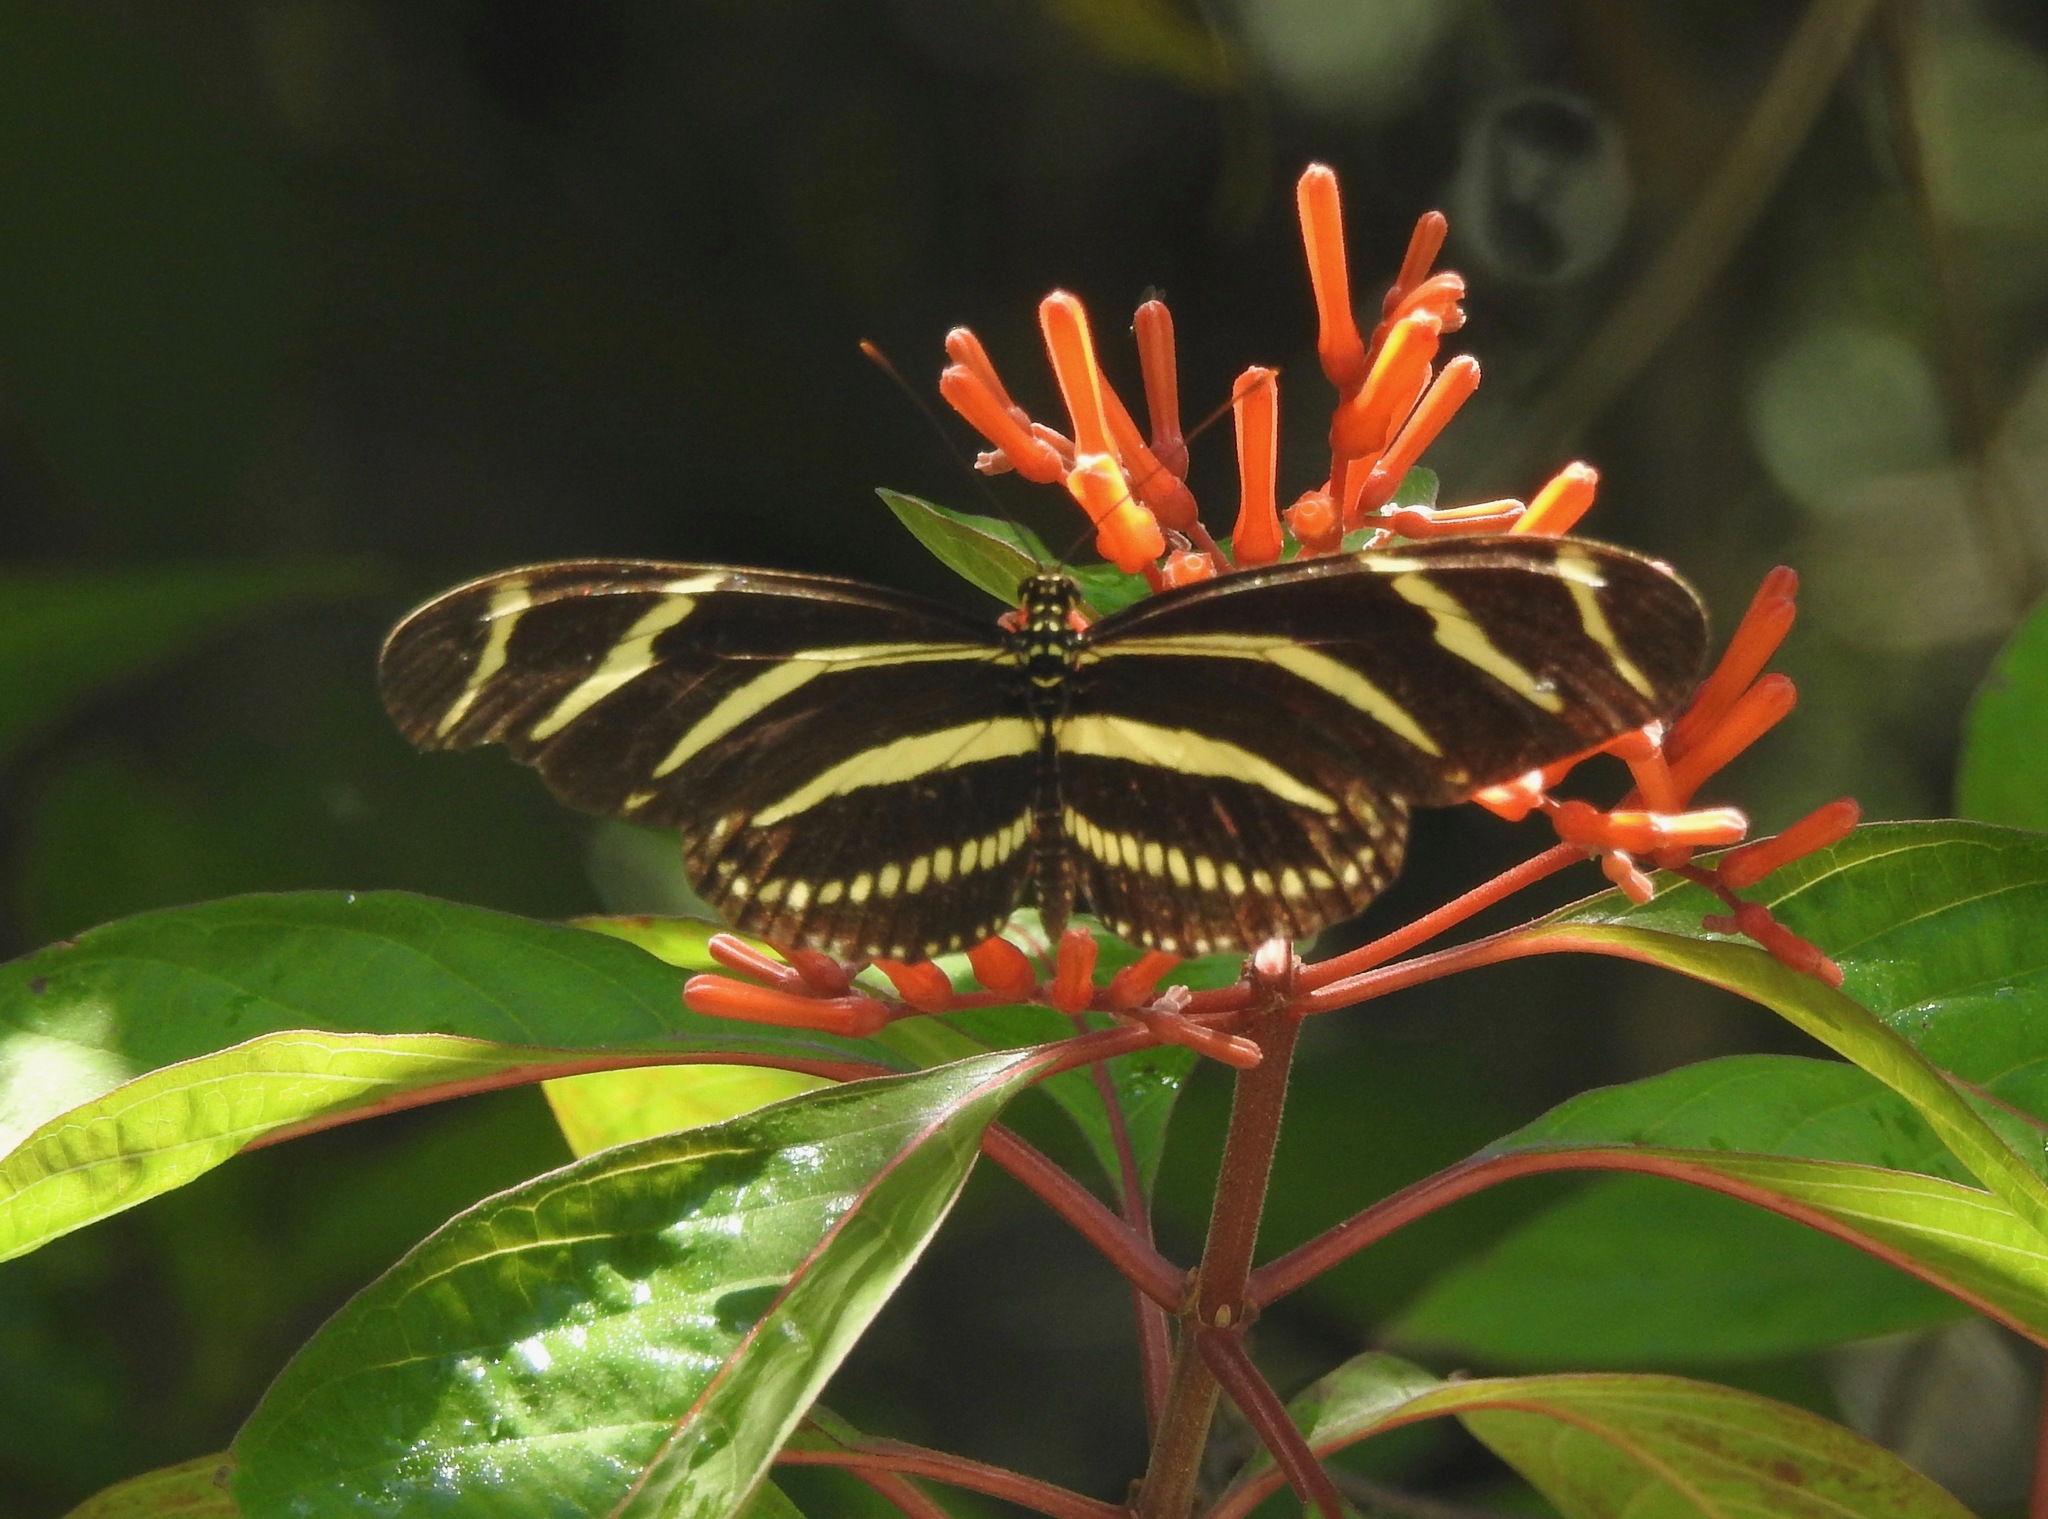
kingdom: Animalia
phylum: Arthropoda
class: Insecta
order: Lepidoptera
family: Nymphalidae
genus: Heliconius
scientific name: Heliconius charithonia
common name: Zebra long wing
